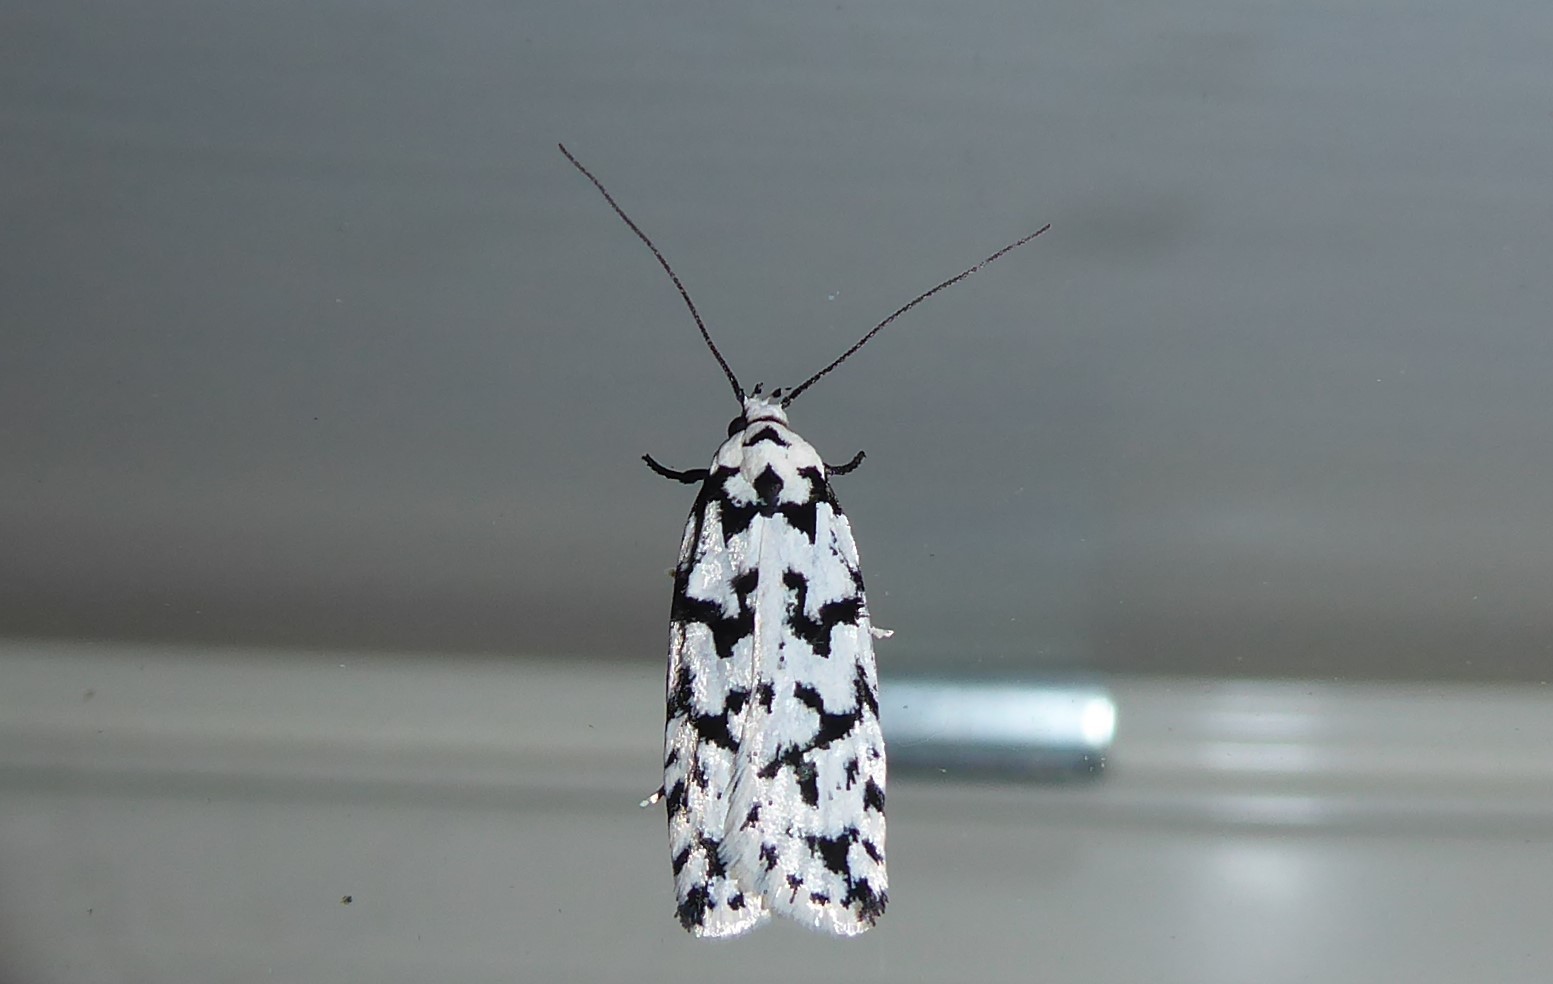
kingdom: Animalia
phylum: Arthropoda
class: Insecta
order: Lepidoptera
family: Oecophoridae
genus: Izatha
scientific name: Izatha katadiktya
